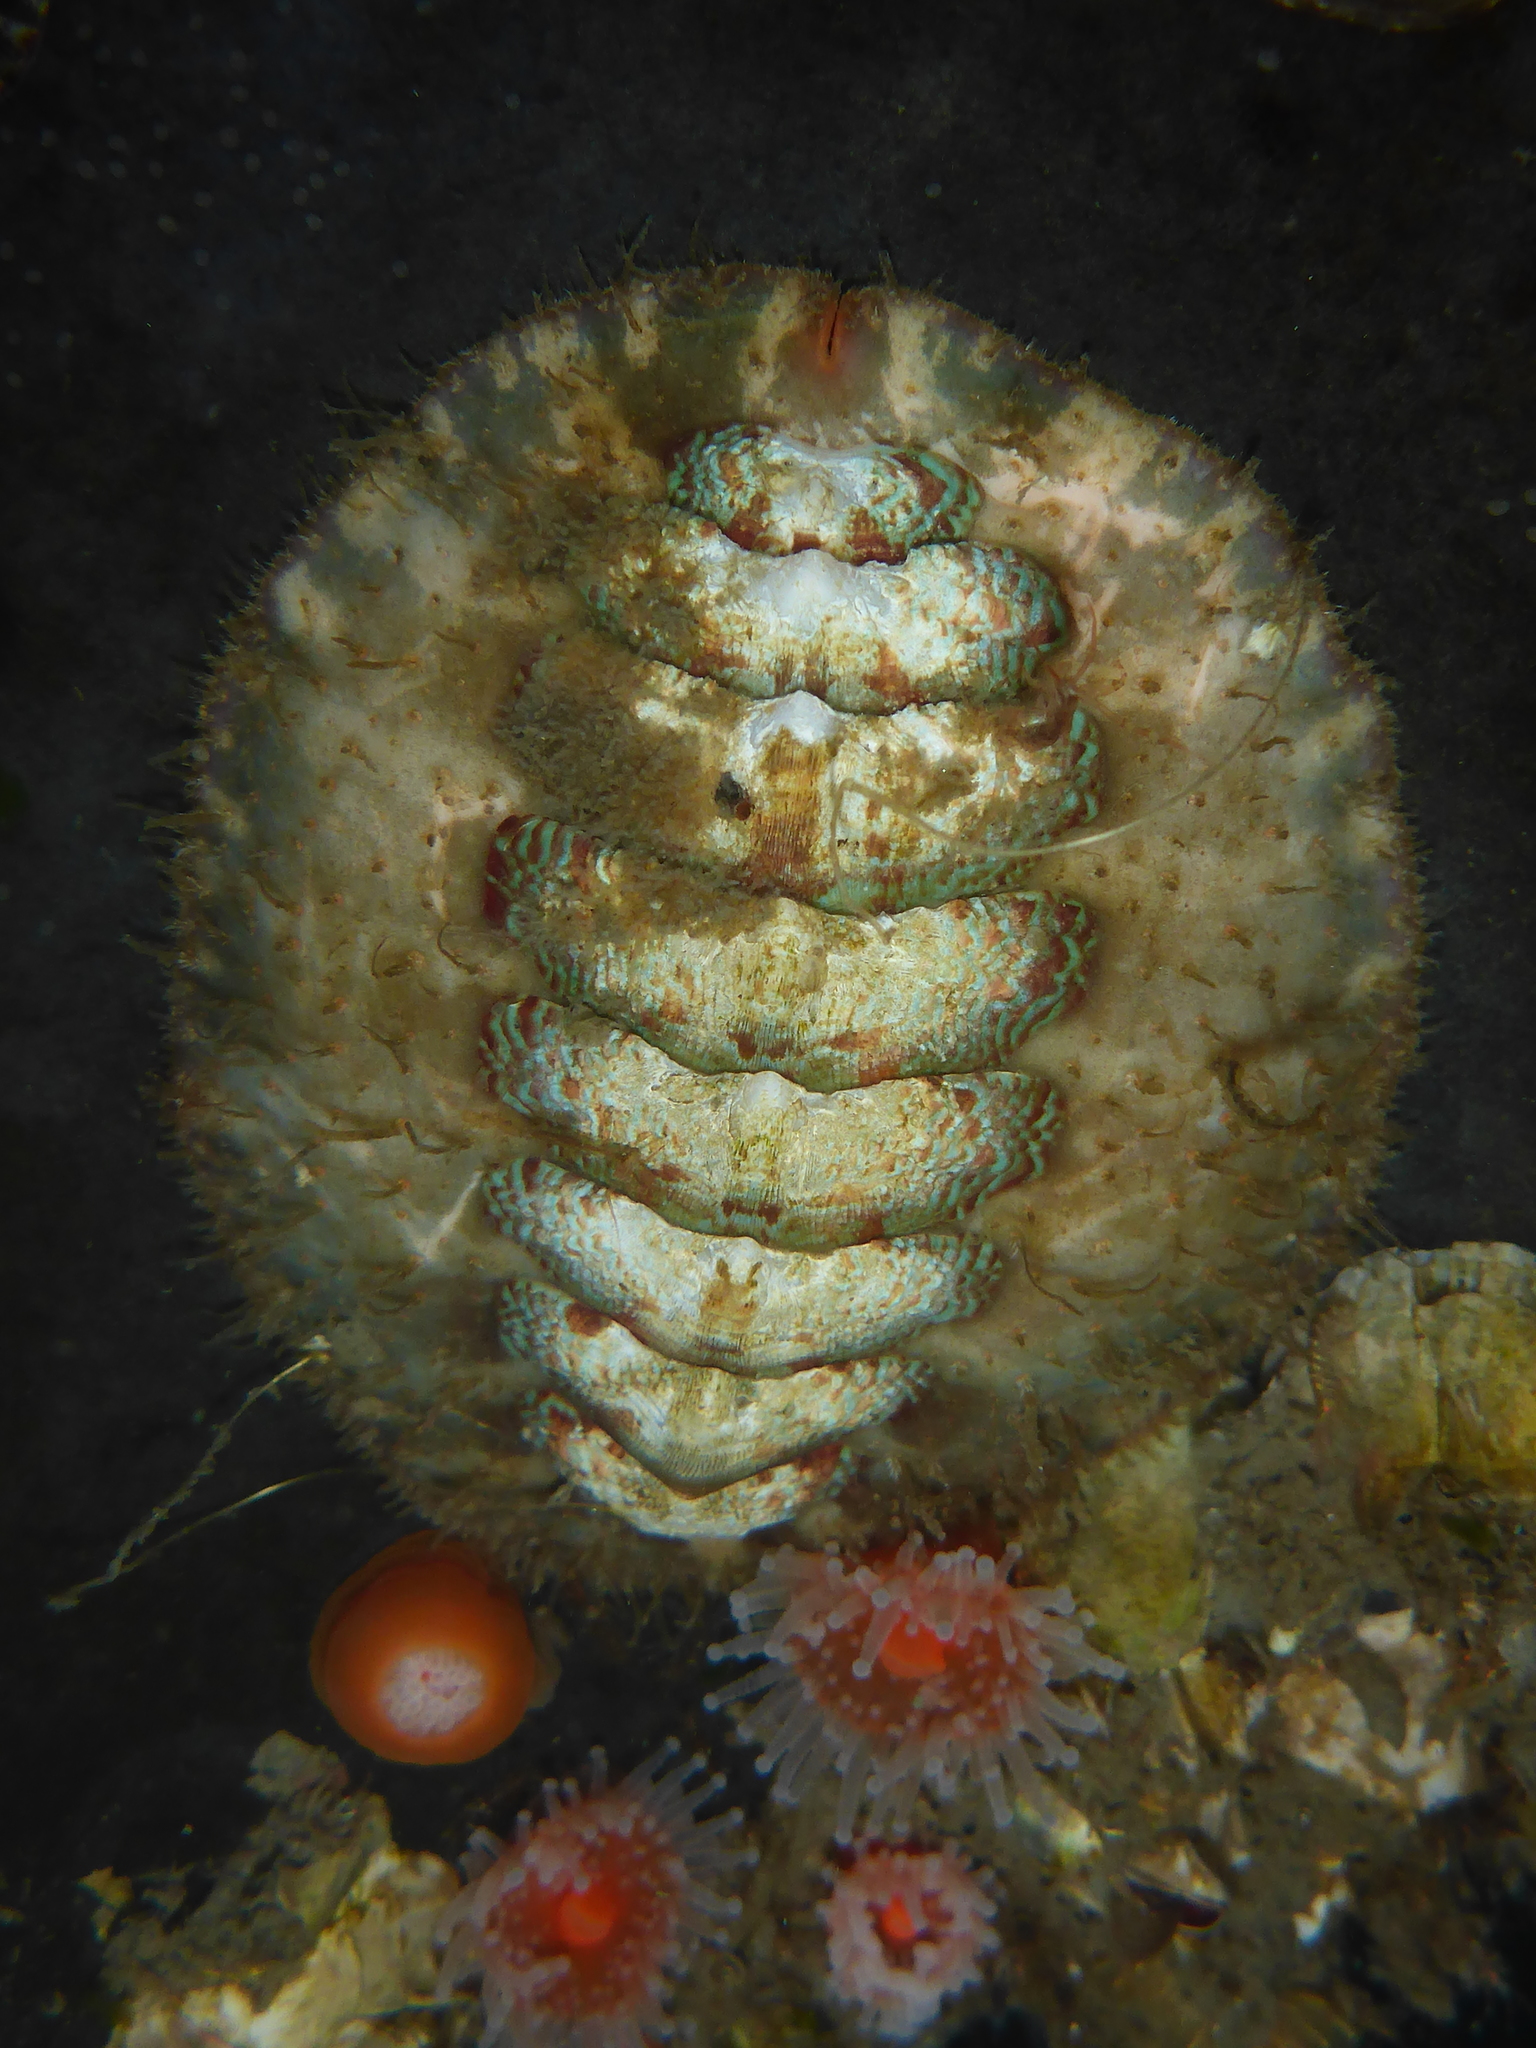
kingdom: Animalia
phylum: Mollusca
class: Polyplacophora
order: Chitonida
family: Mopaliidae
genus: Mopalia
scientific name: Mopalia spectabilis
